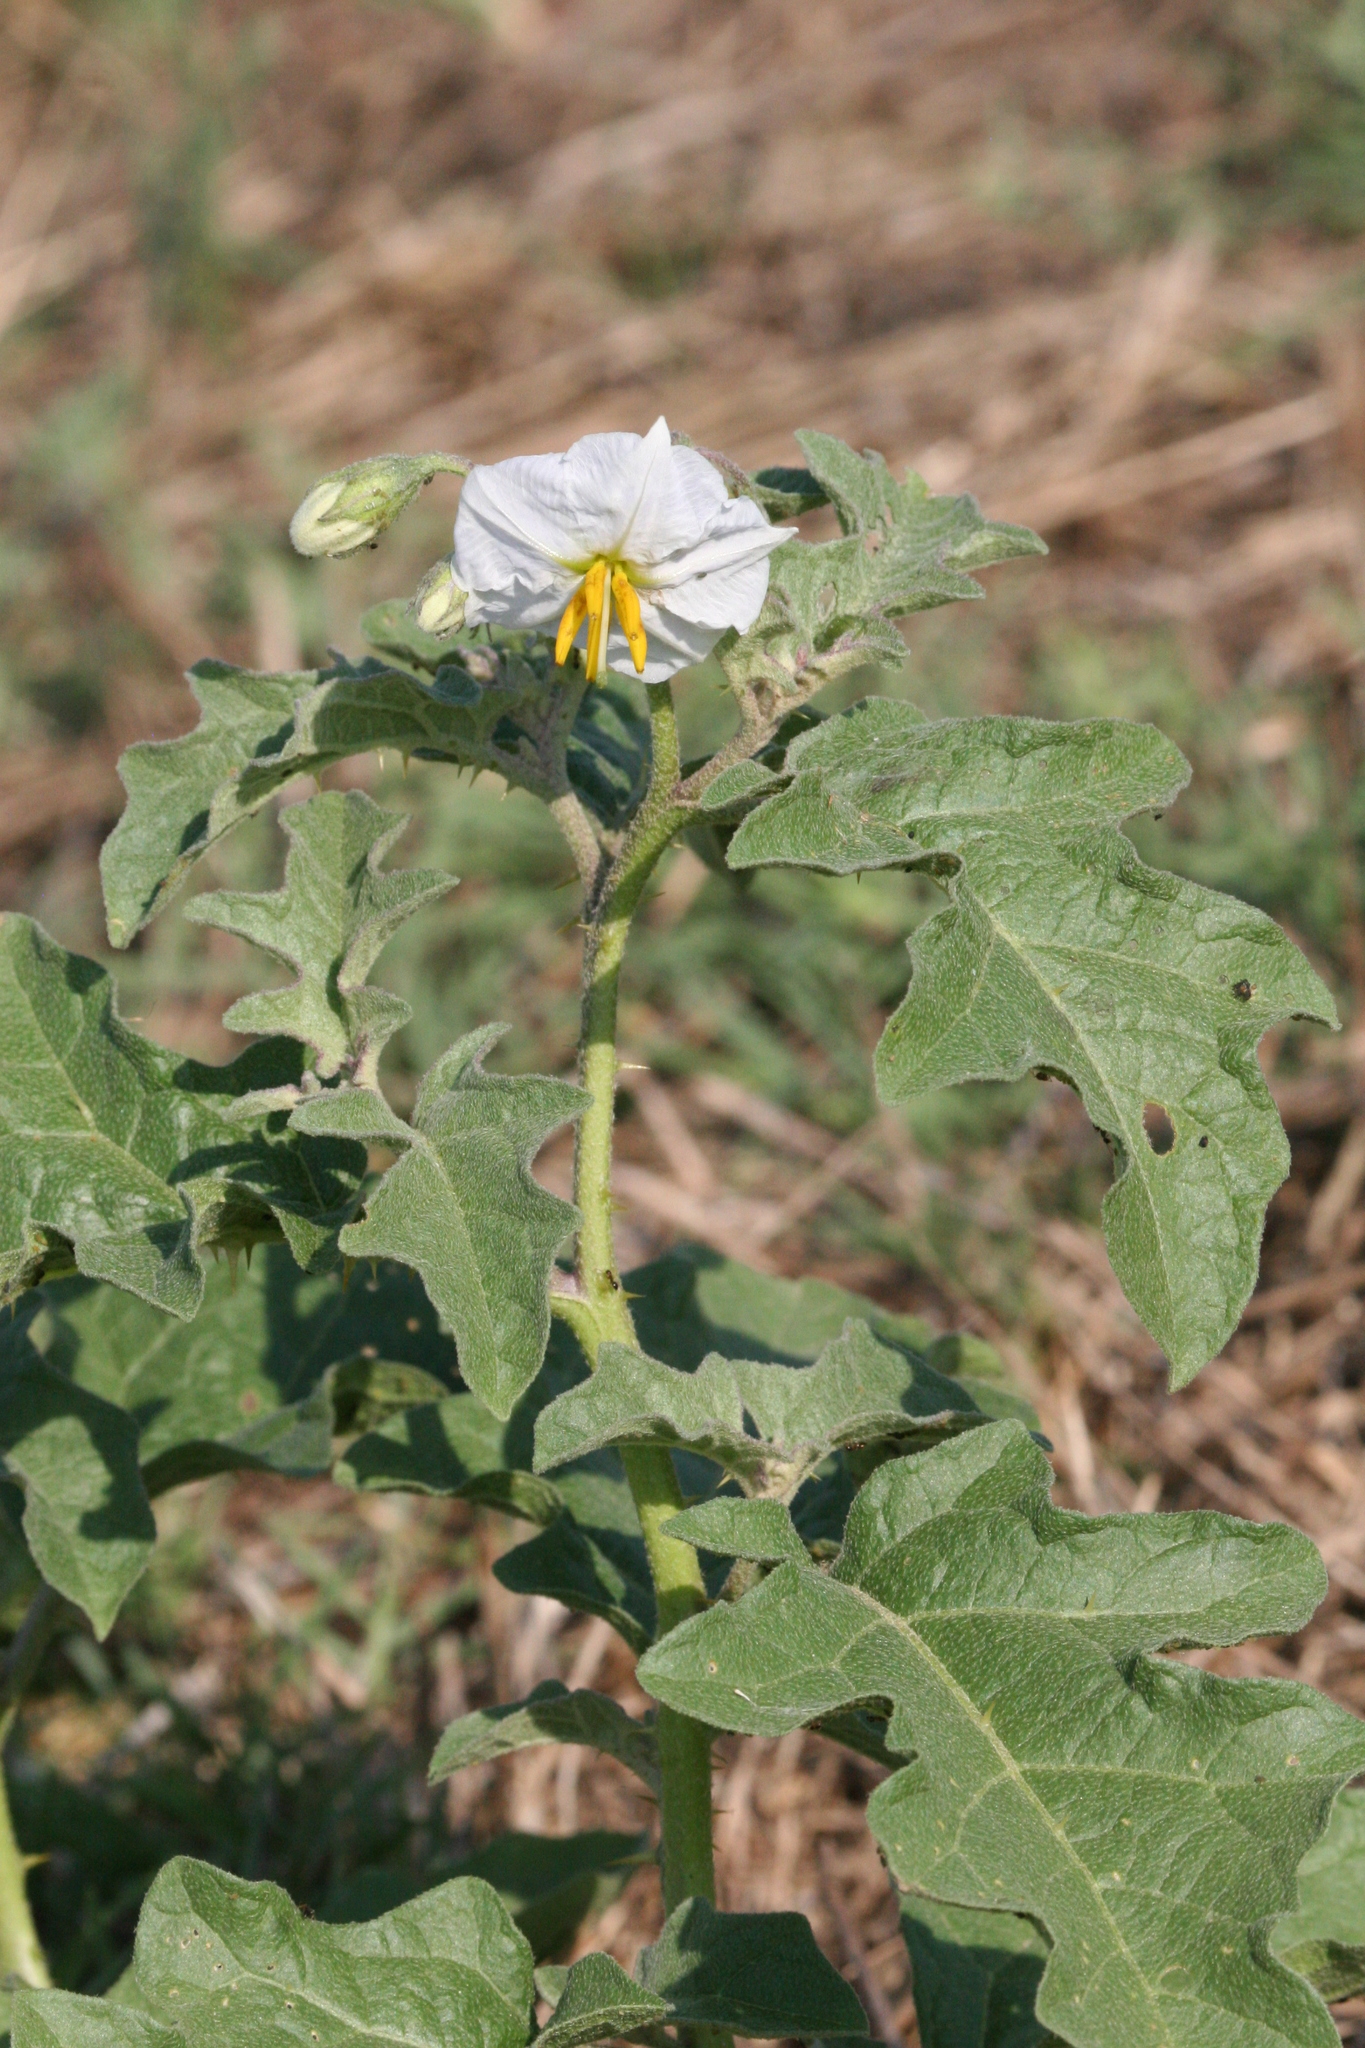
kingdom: Plantae
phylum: Tracheophyta
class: Magnoliopsida
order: Solanales
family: Solanaceae
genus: Solanum
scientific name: Solanum dimidiatum
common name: Carolina horse-nettle
